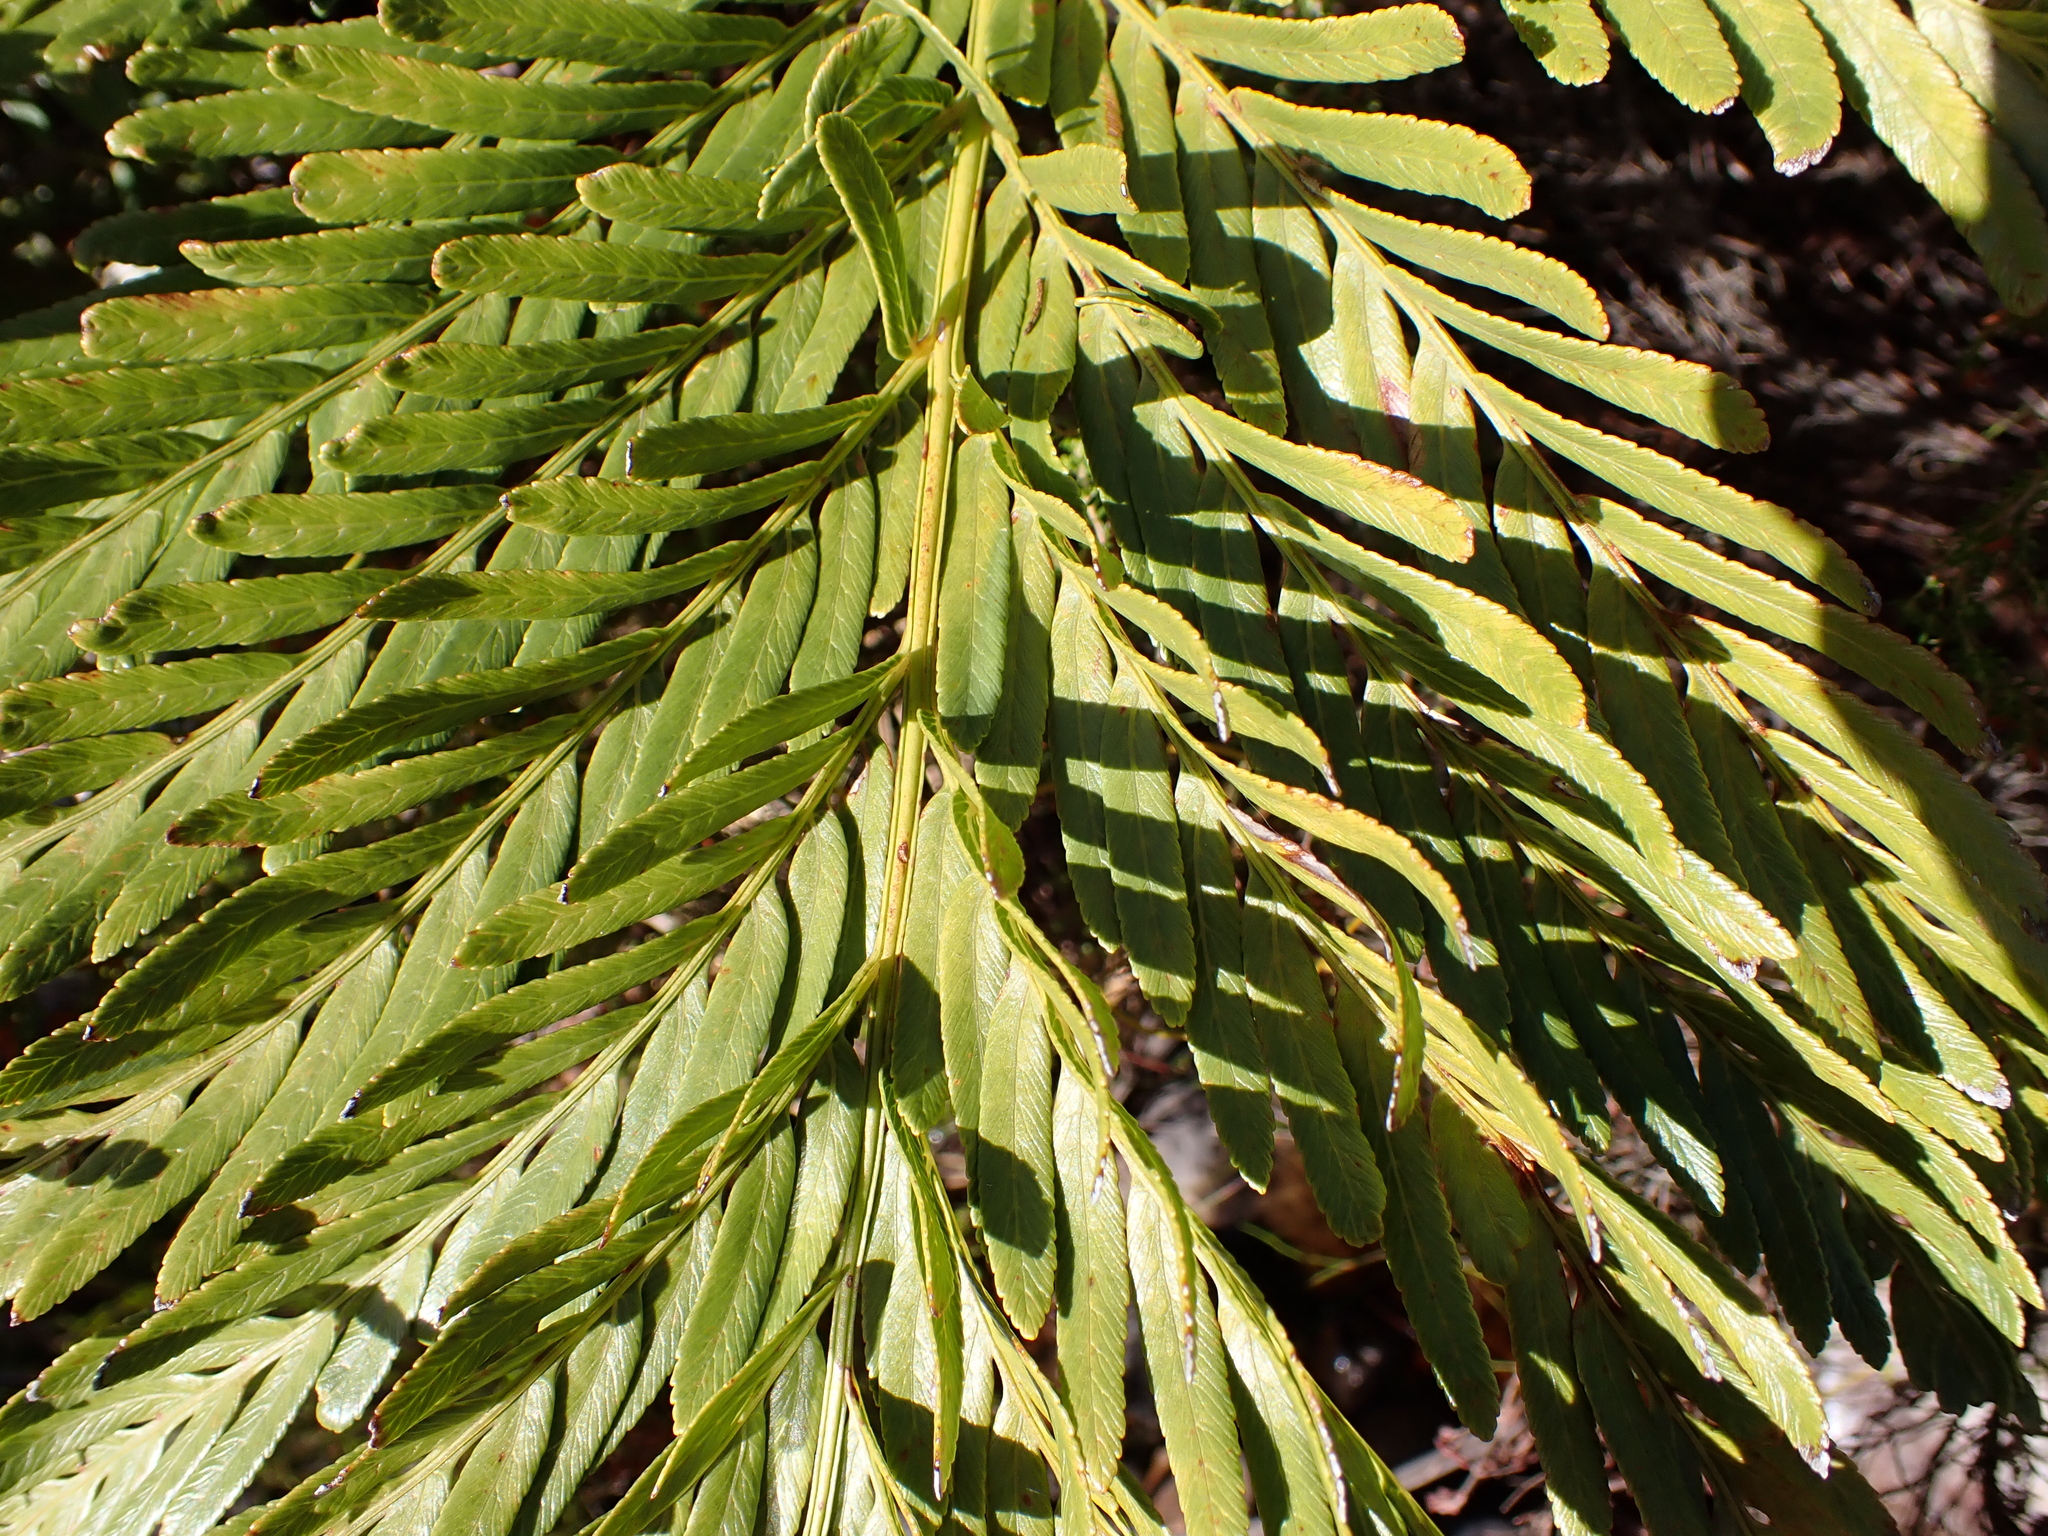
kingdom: Plantae
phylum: Tracheophyta
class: Polypodiopsida
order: Osmundales
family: Osmundaceae
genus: Todea
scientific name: Todea barbara
